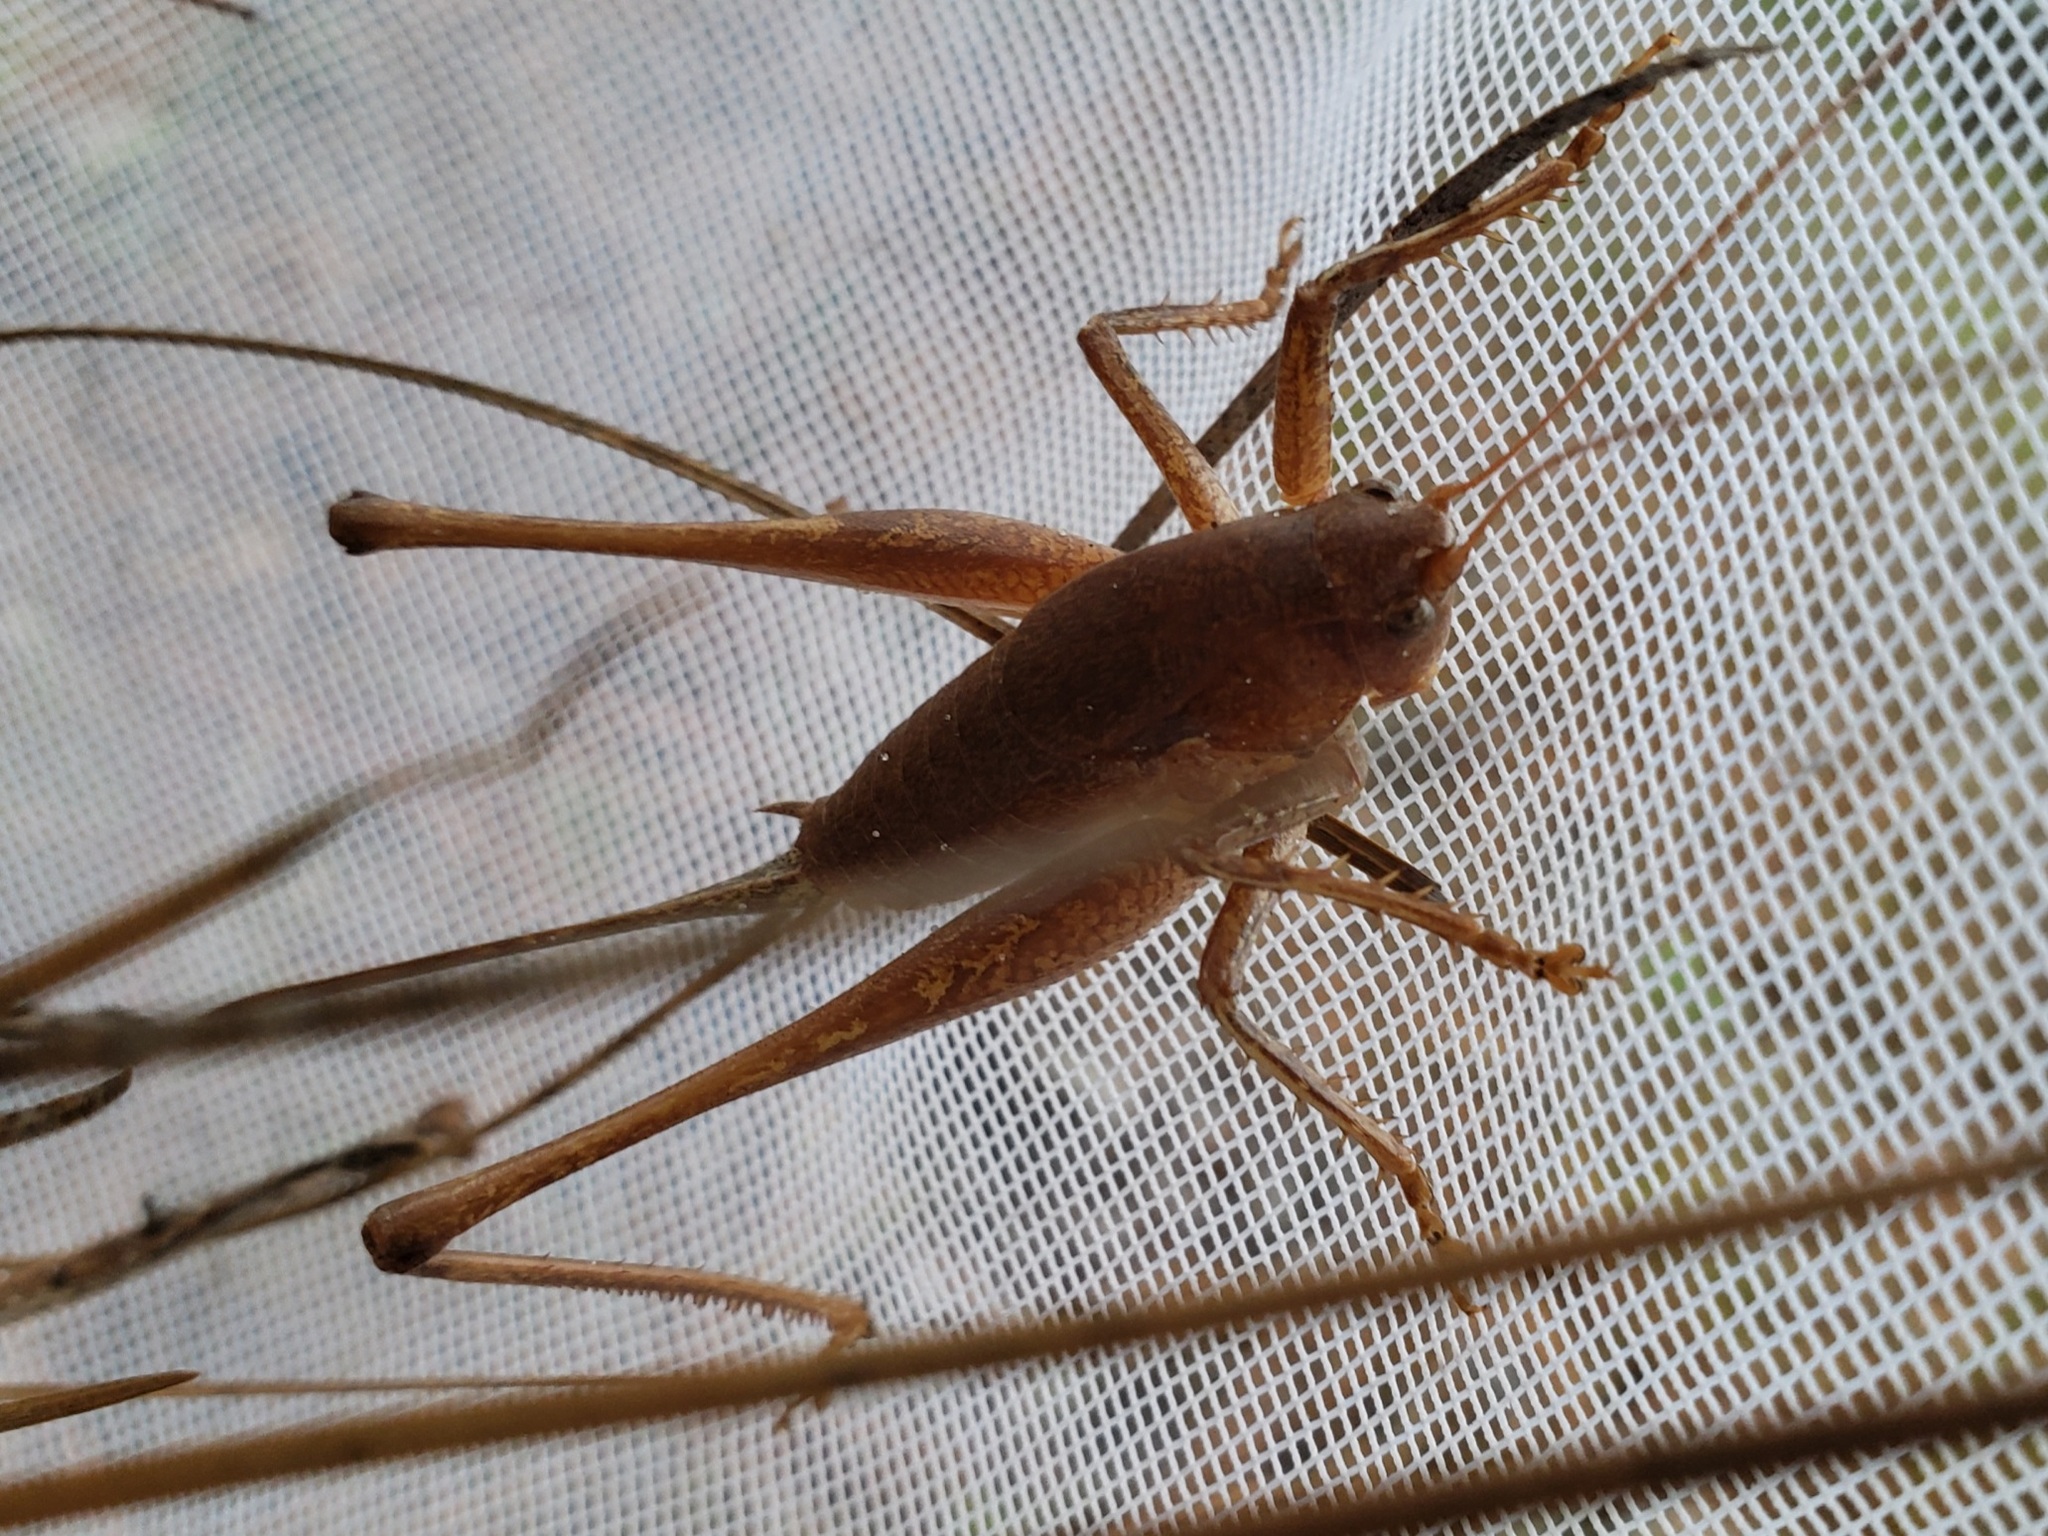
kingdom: Animalia
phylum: Arthropoda
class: Insecta
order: Orthoptera
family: Tettigoniidae
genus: Atlanticus
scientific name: Atlanticus gibbosus
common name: Robust shield-bearer
